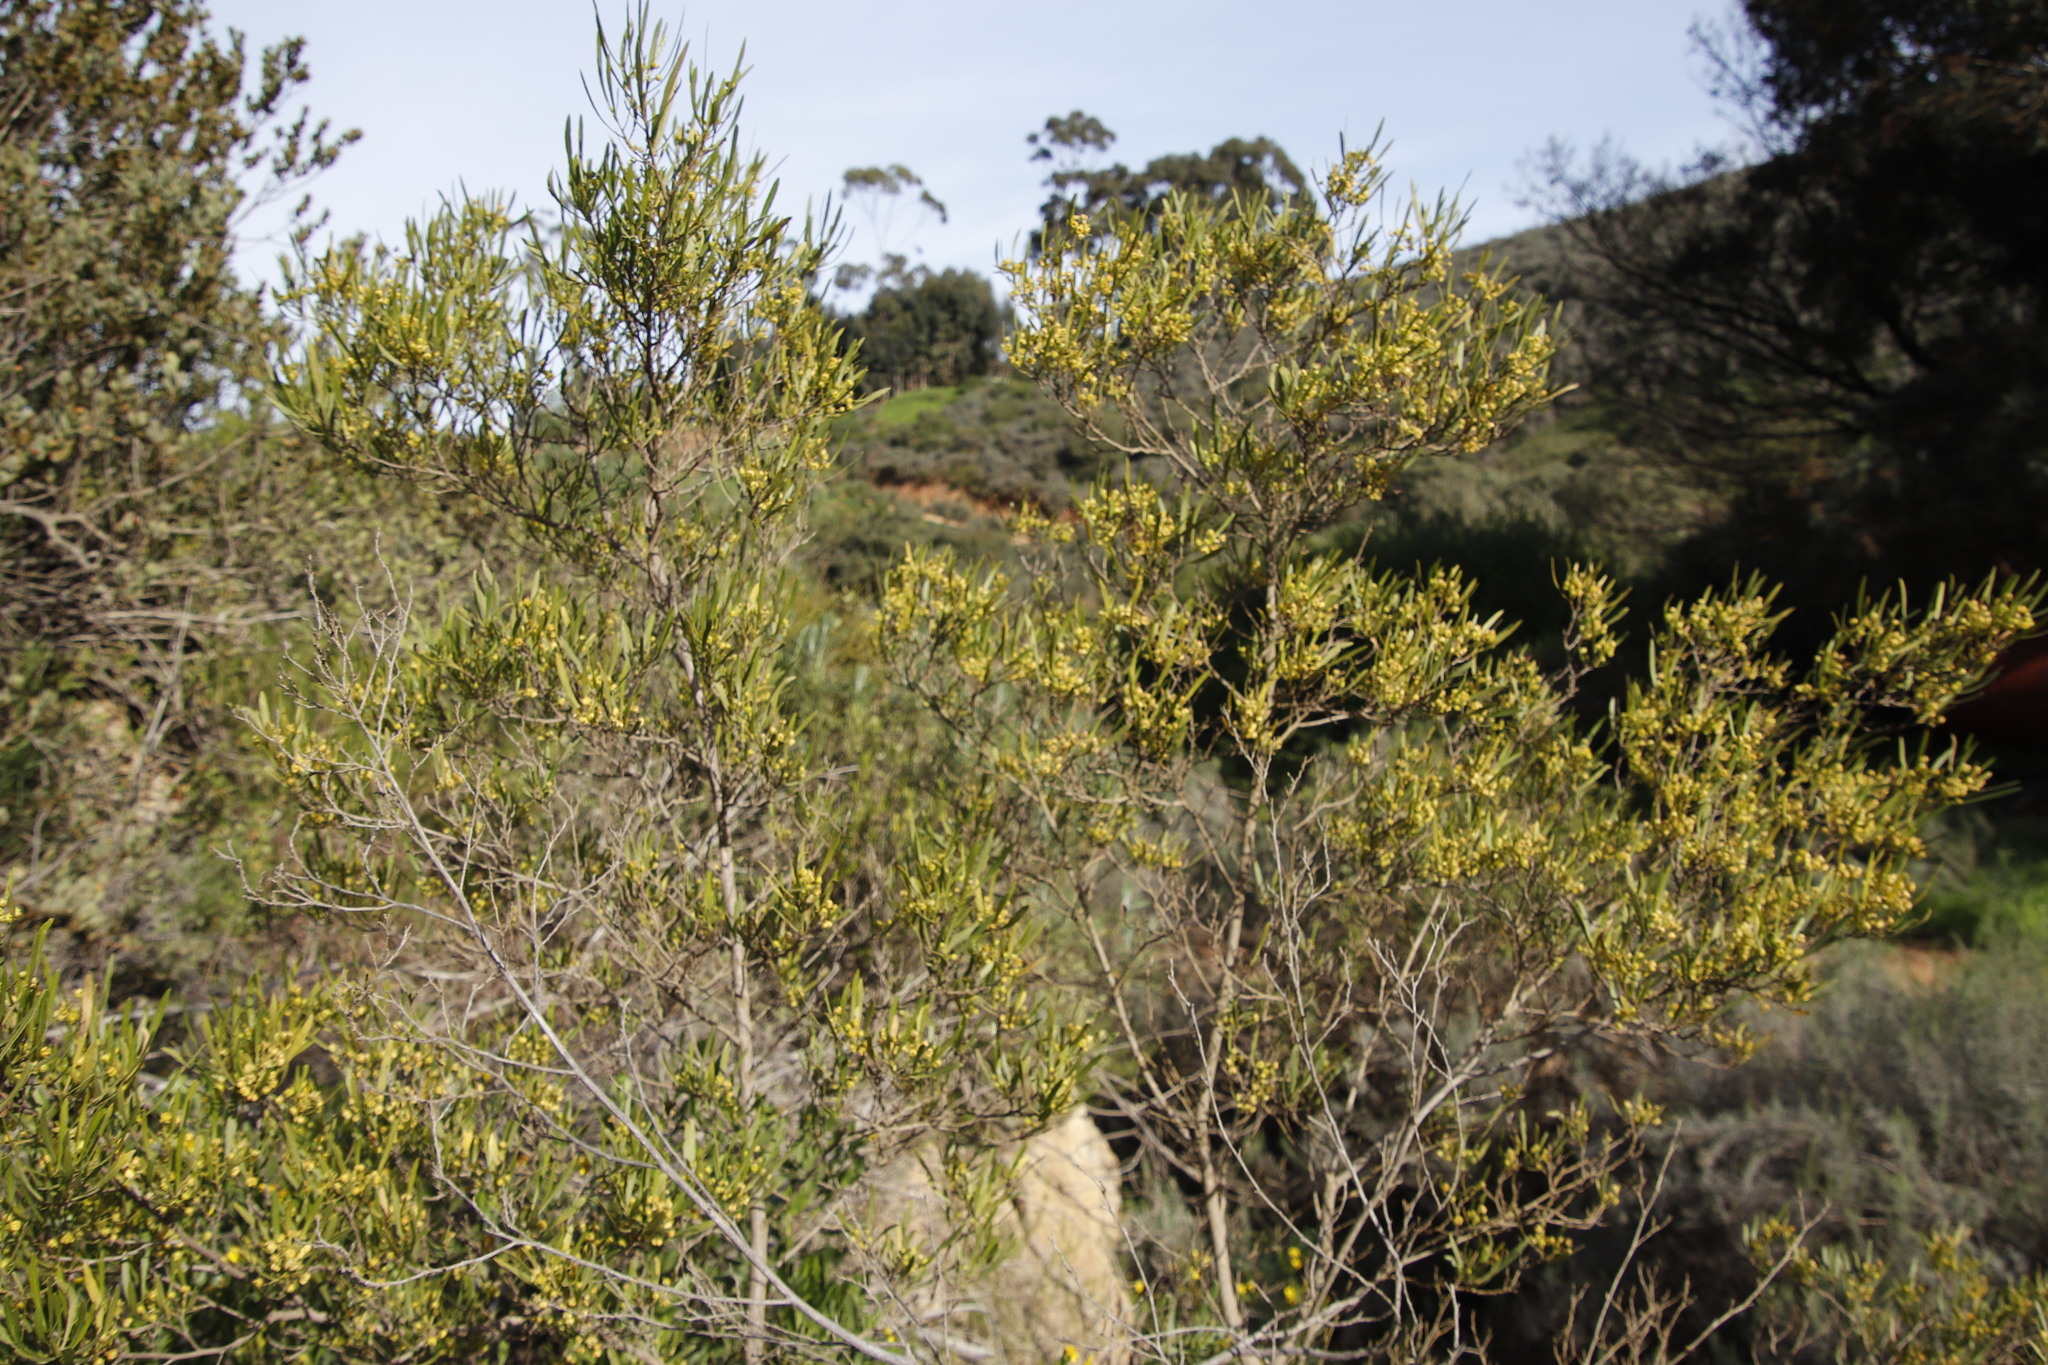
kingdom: Plantae
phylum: Tracheophyta
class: Magnoliopsida
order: Sapindales
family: Sapindaceae
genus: Dodonaea
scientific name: Dodonaea viscosa
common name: Hopbush
